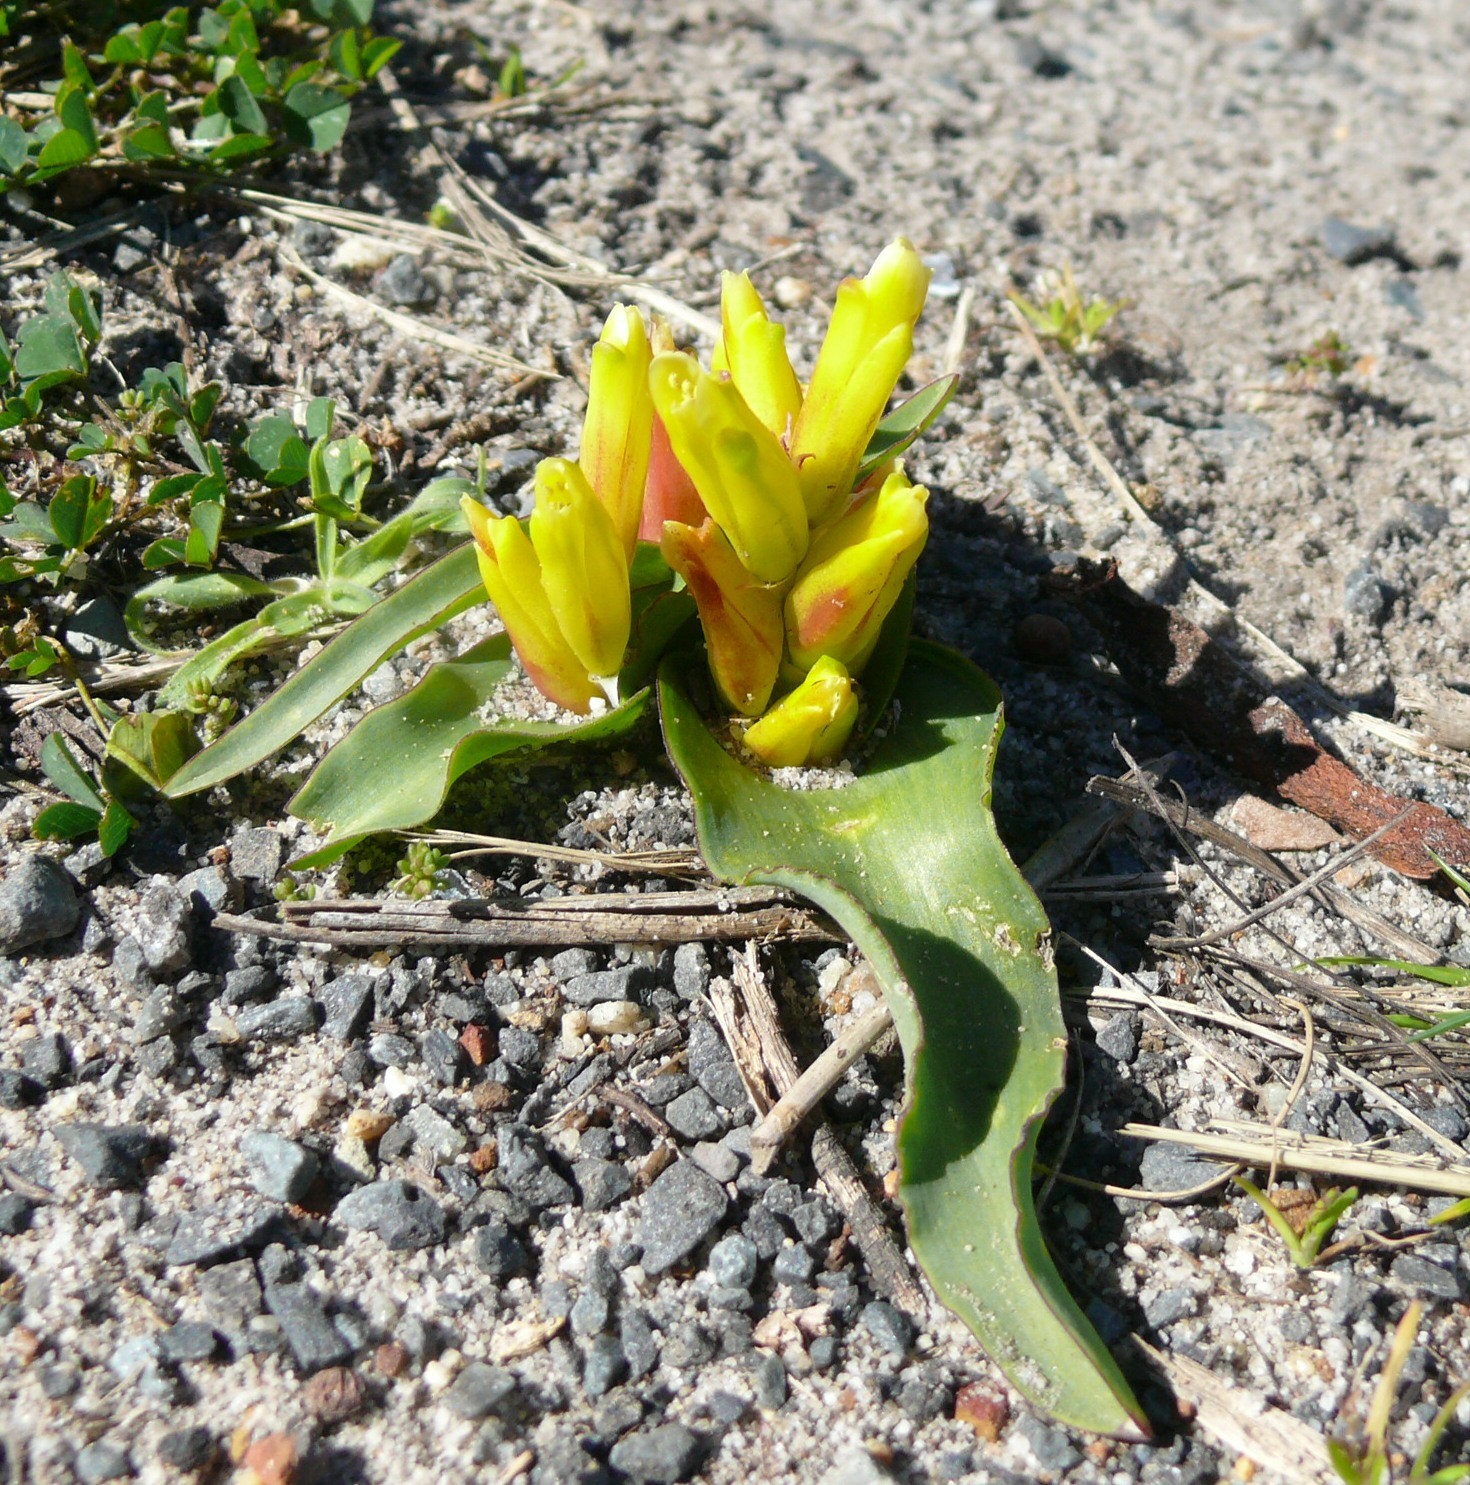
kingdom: Plantae
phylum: Tracheophyta
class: Liliopsida
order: Asparagales
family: Asparagaceae
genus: Lachenalia
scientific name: Lachenalia reflexa
